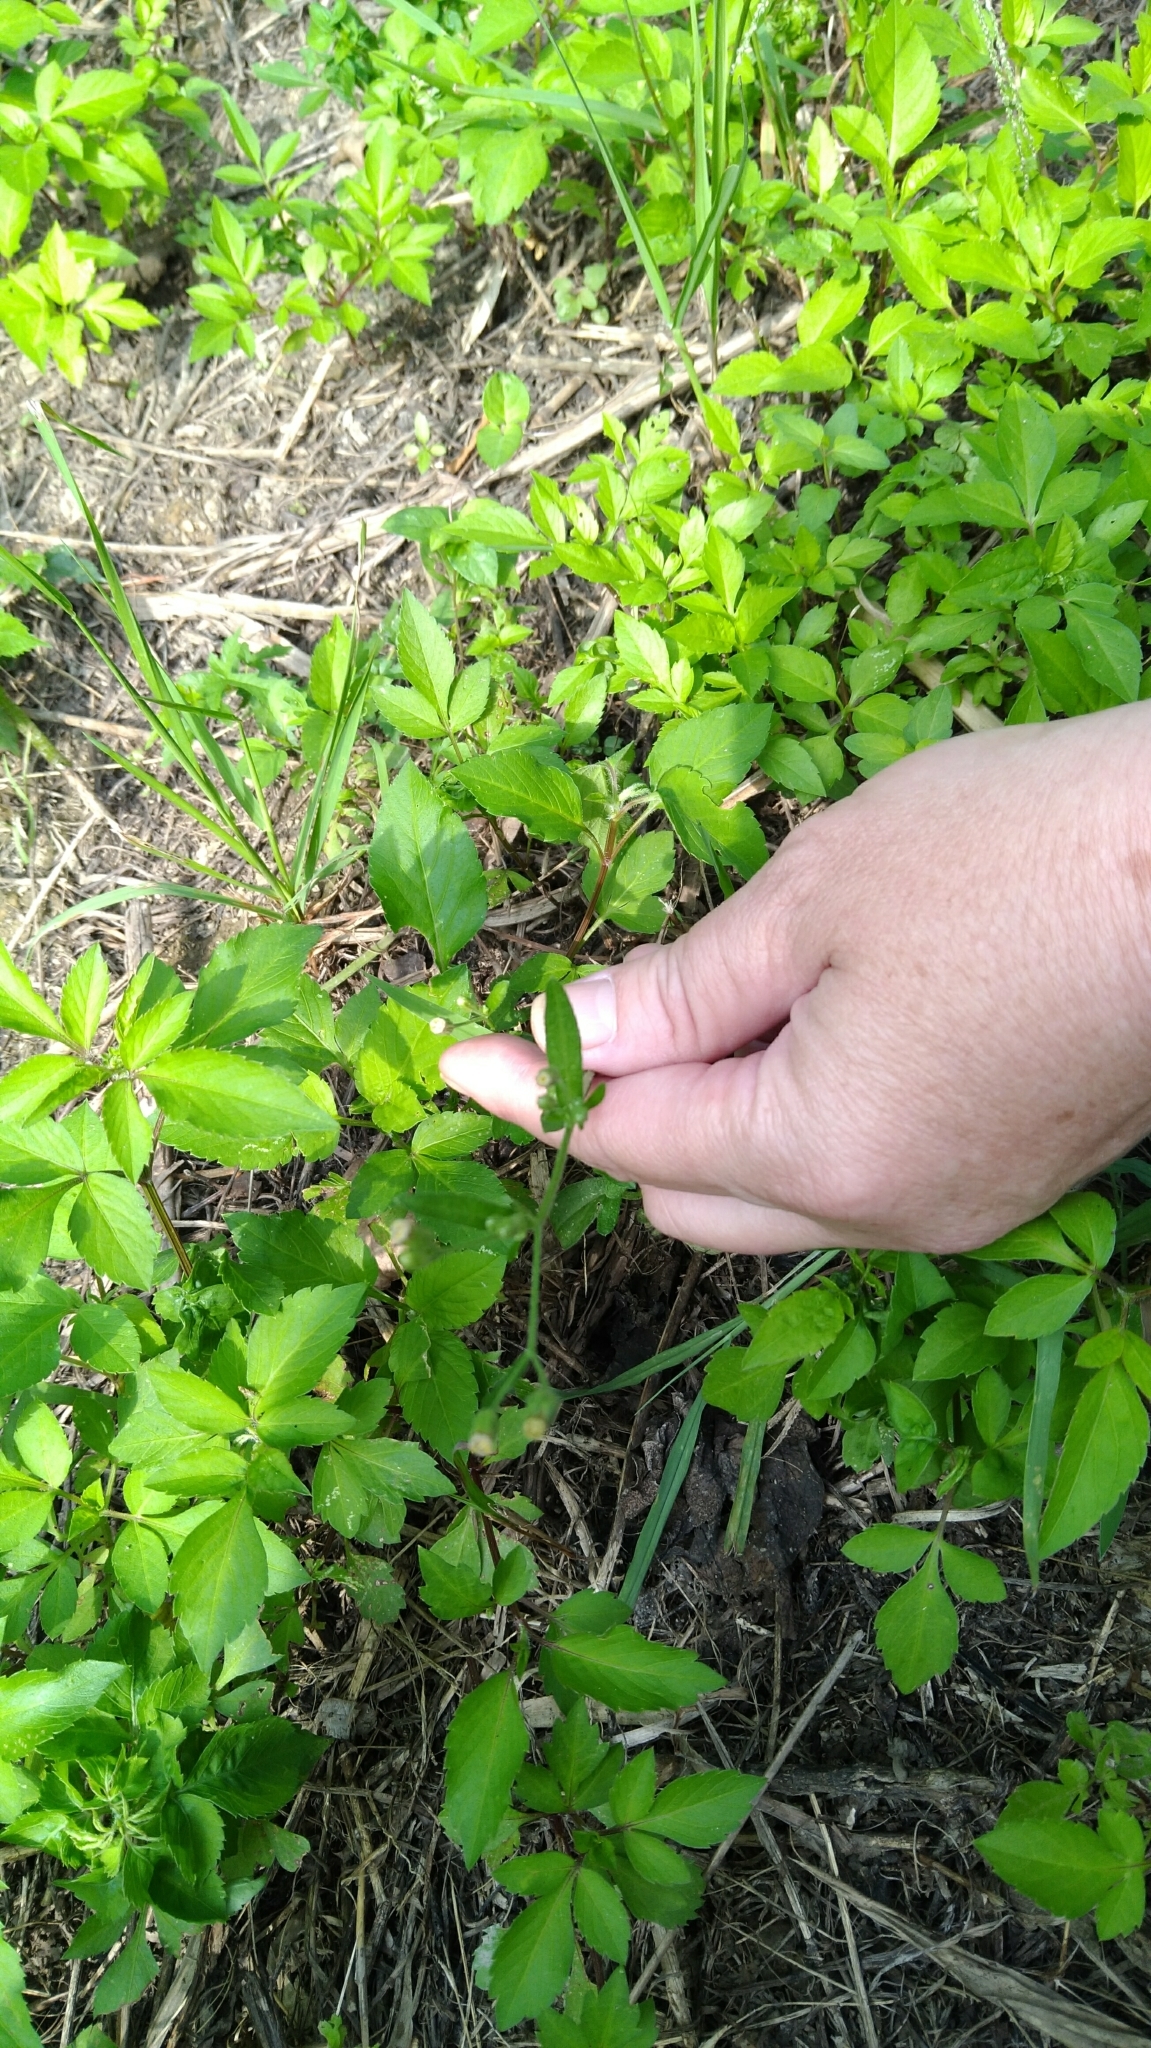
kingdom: Plantae
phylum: Tracheophyta
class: Magnoliopsida
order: Asterales
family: Asteraceae
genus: Erigeron
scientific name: Erigeron bonariensis
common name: Argentine fleabane
